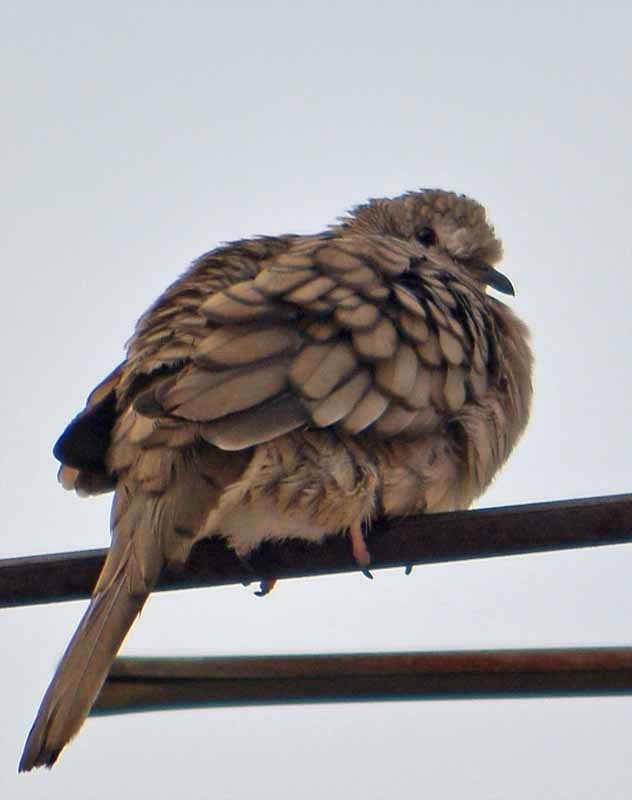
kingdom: Animalia
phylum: Chordata
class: Aves
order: Columbiformes
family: Columbidae
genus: Columbina
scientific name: Columbina inca
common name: Inca dove
